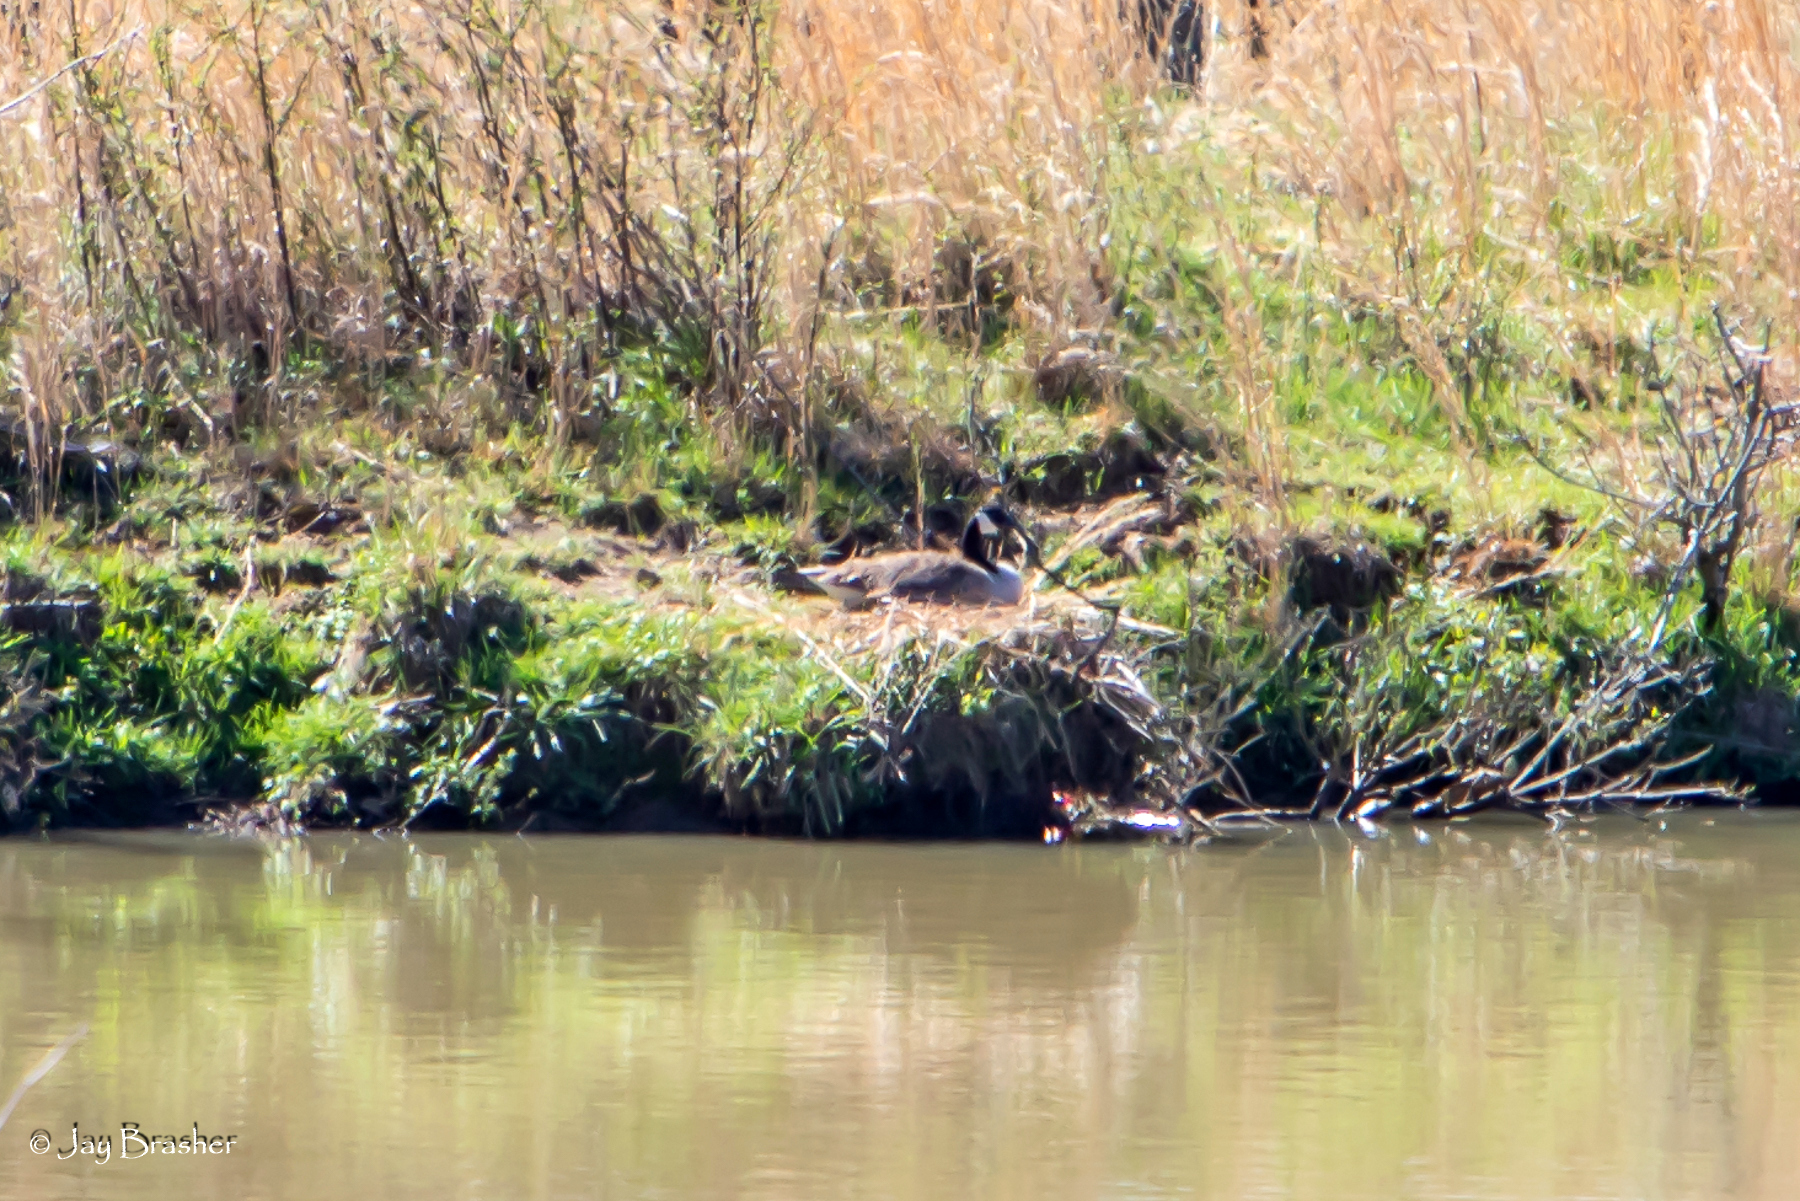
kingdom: Animalia
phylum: Chordata
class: Aves
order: Anseriformes
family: Anatidae
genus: Branta
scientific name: Branta canadensis
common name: Canada goose
